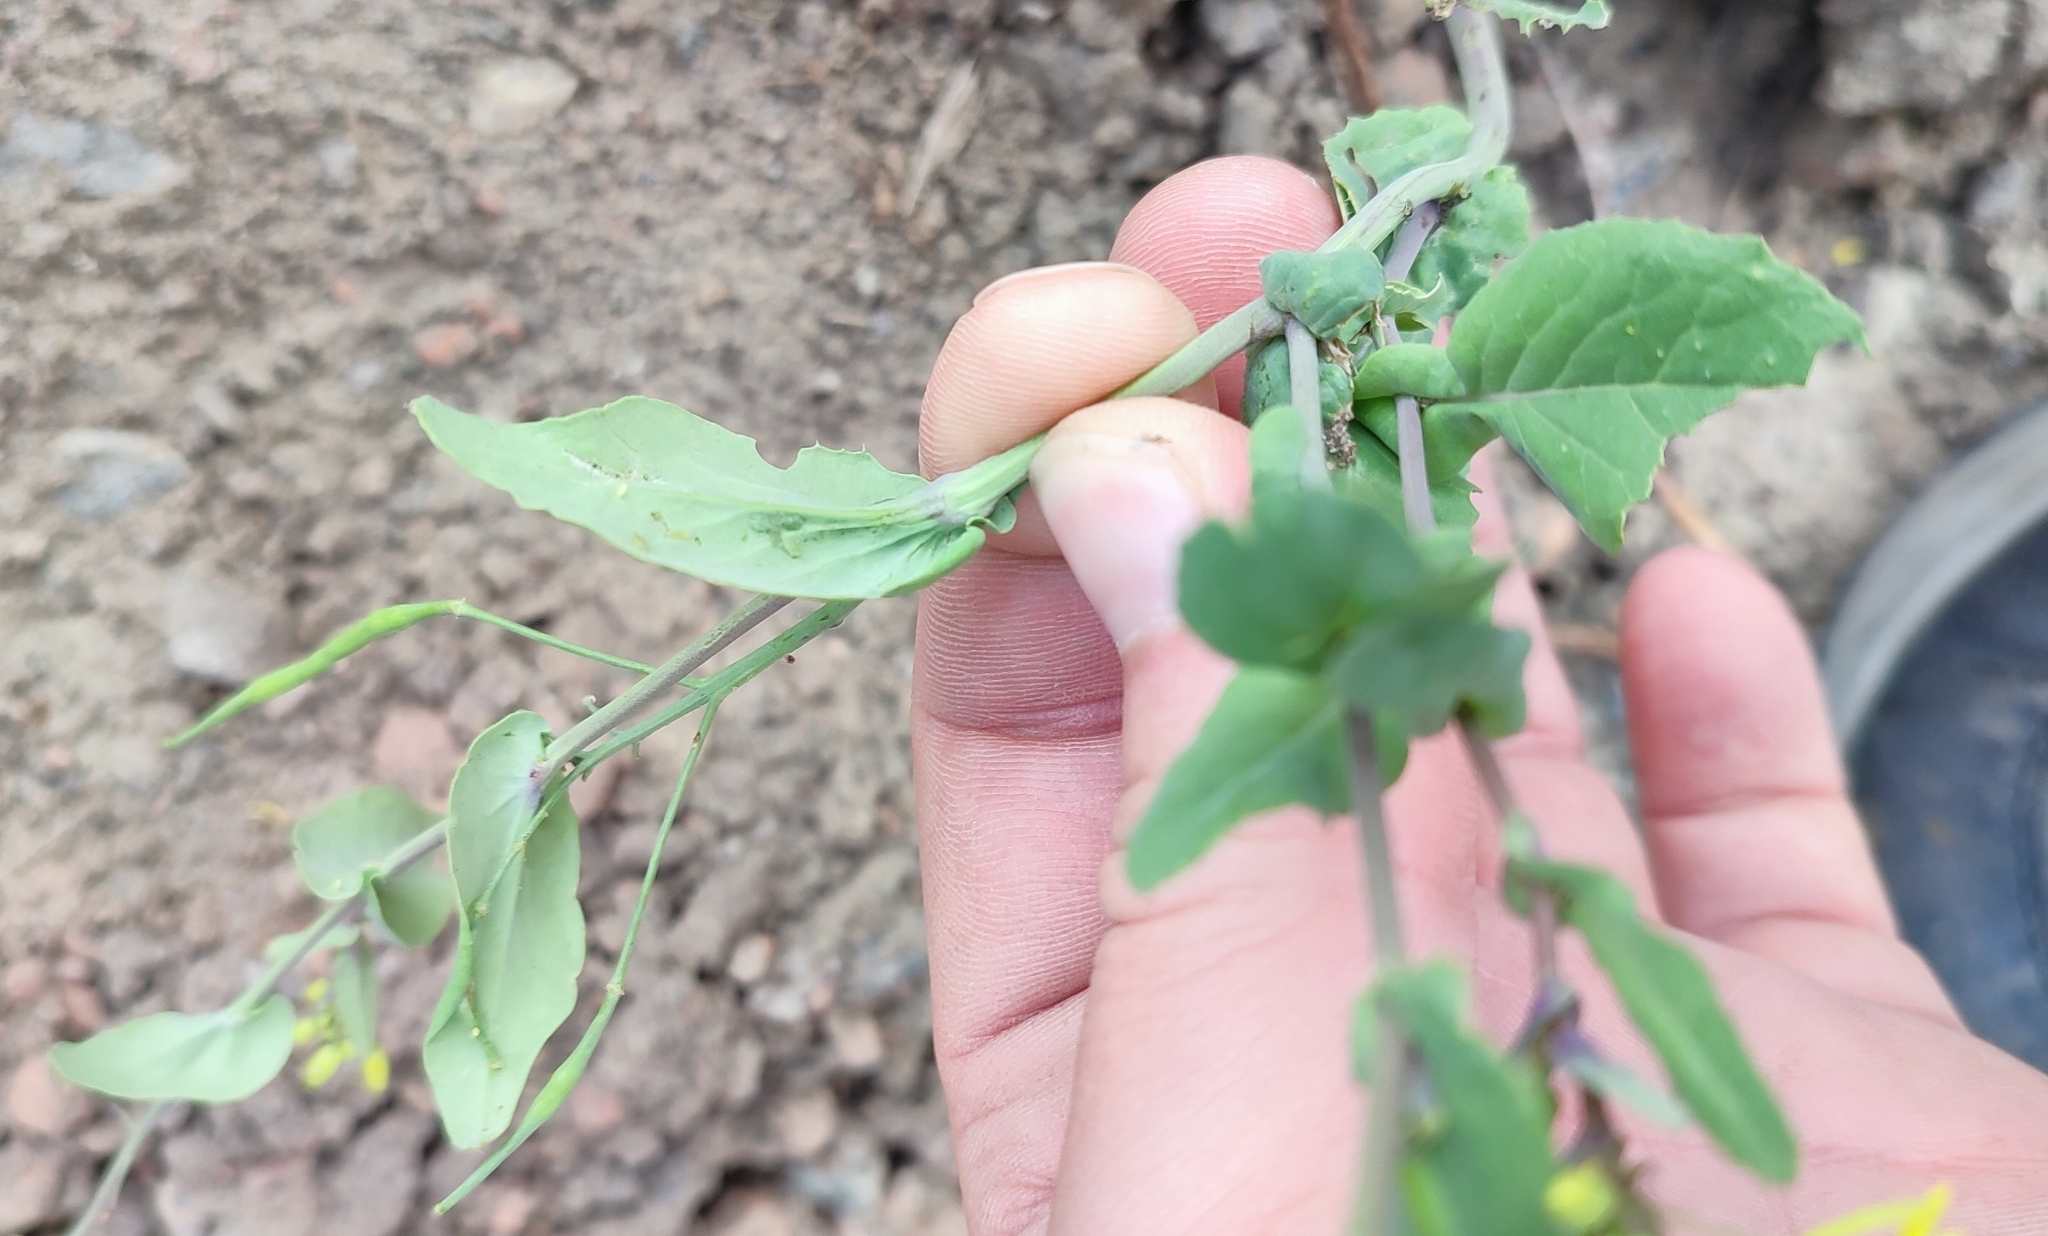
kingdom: Plantae
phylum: Tracheophyta
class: Magnoliopsida
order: Brassicales
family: Brassicaceae
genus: Brassica
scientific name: Brassica rapa
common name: Field mustard
